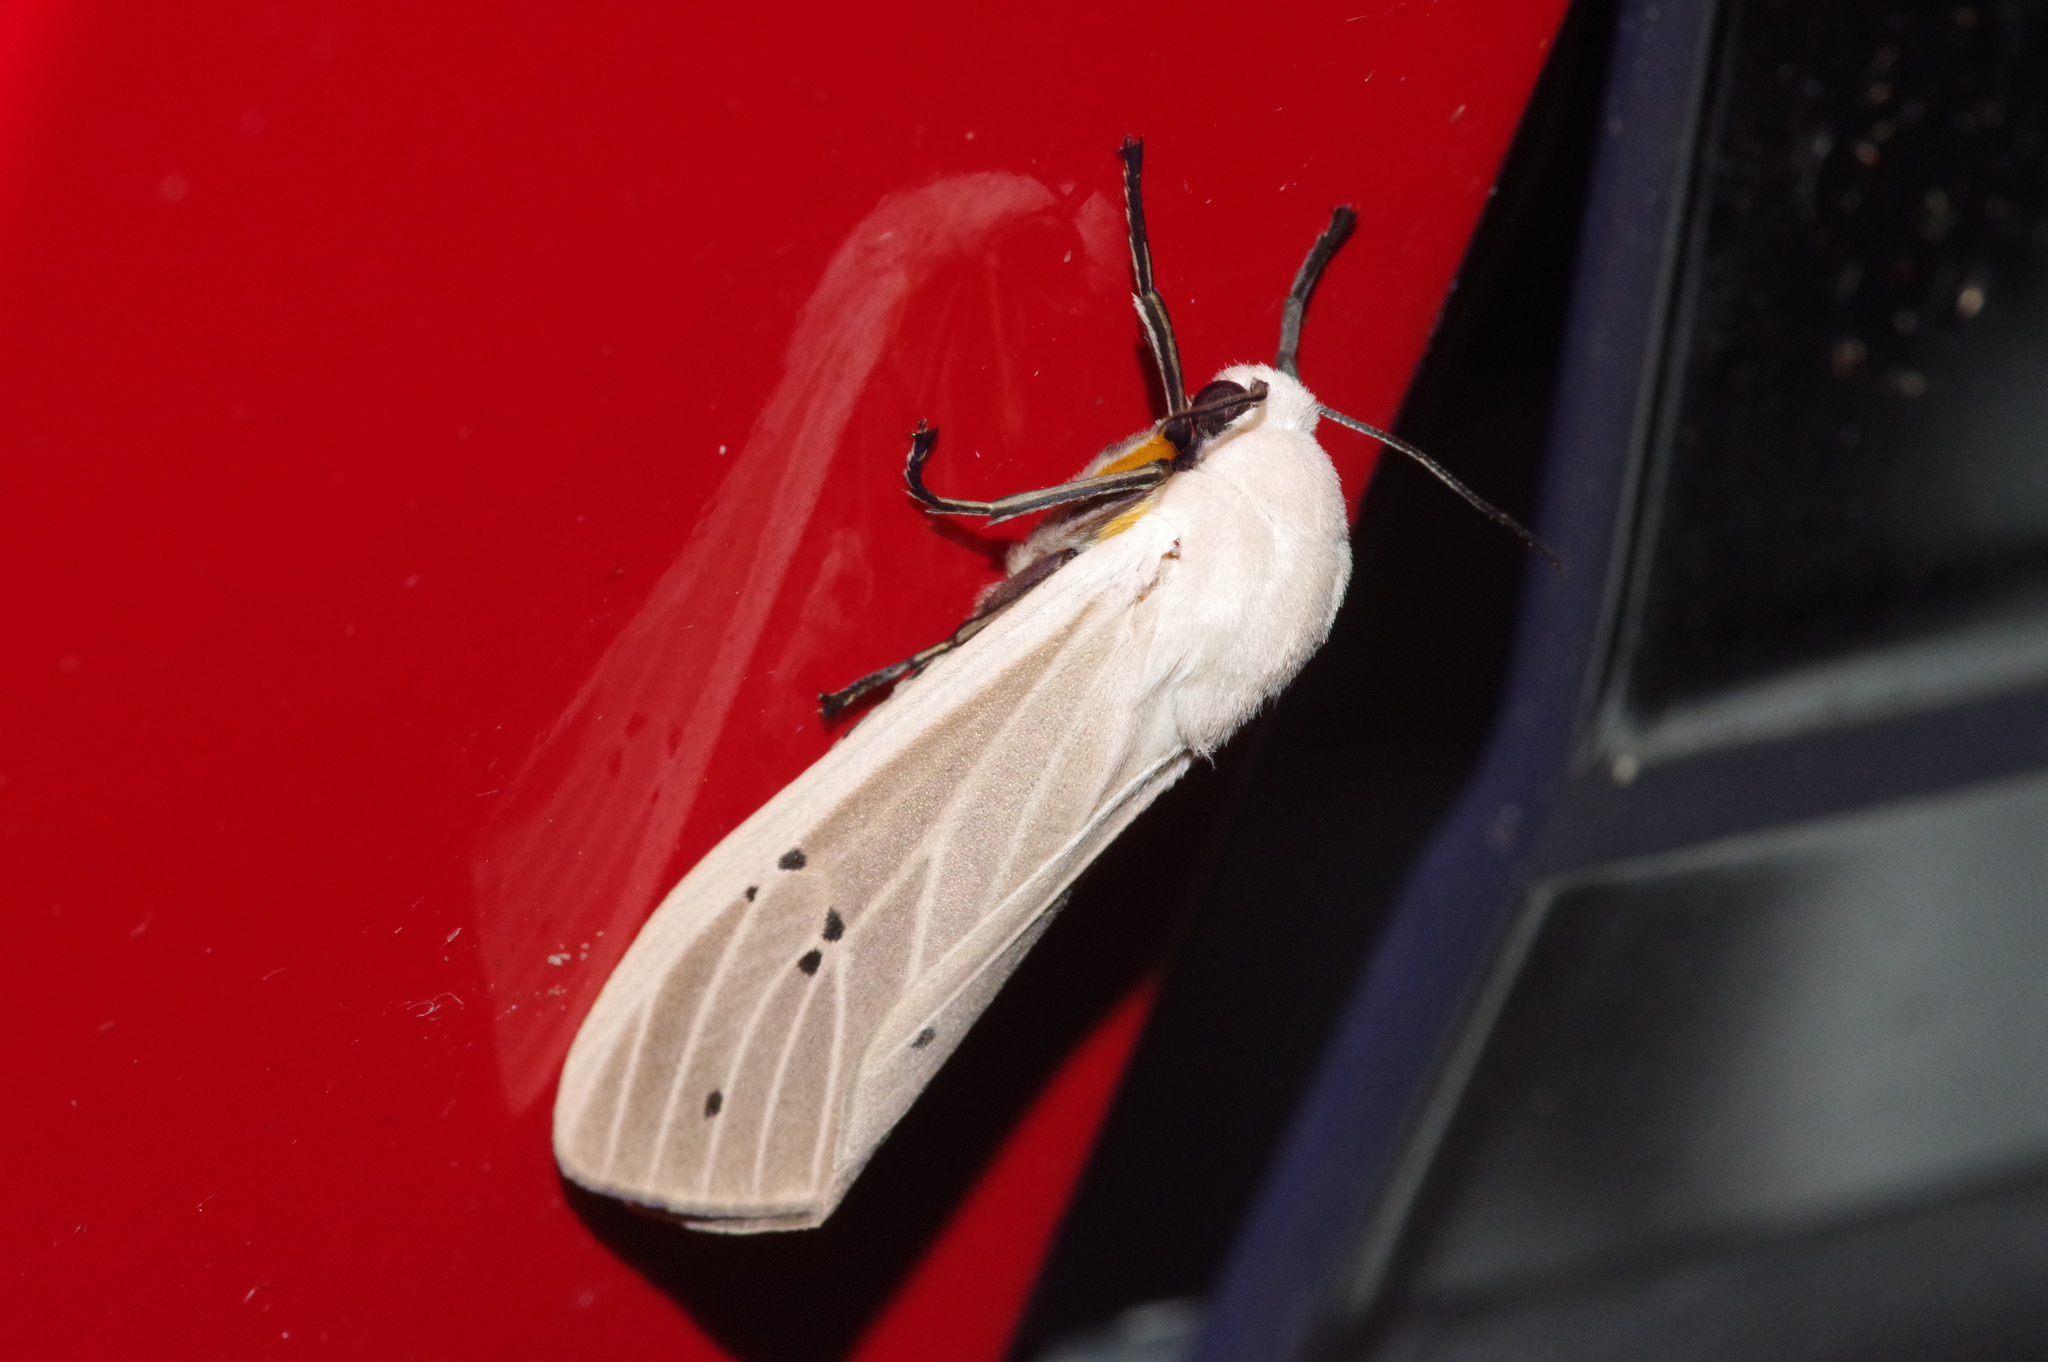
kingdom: Animalia
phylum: Arthropoda
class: Insecta
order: Lepidoptera
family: Erebidae
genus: Creatonotos
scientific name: Creatonotos transiens
